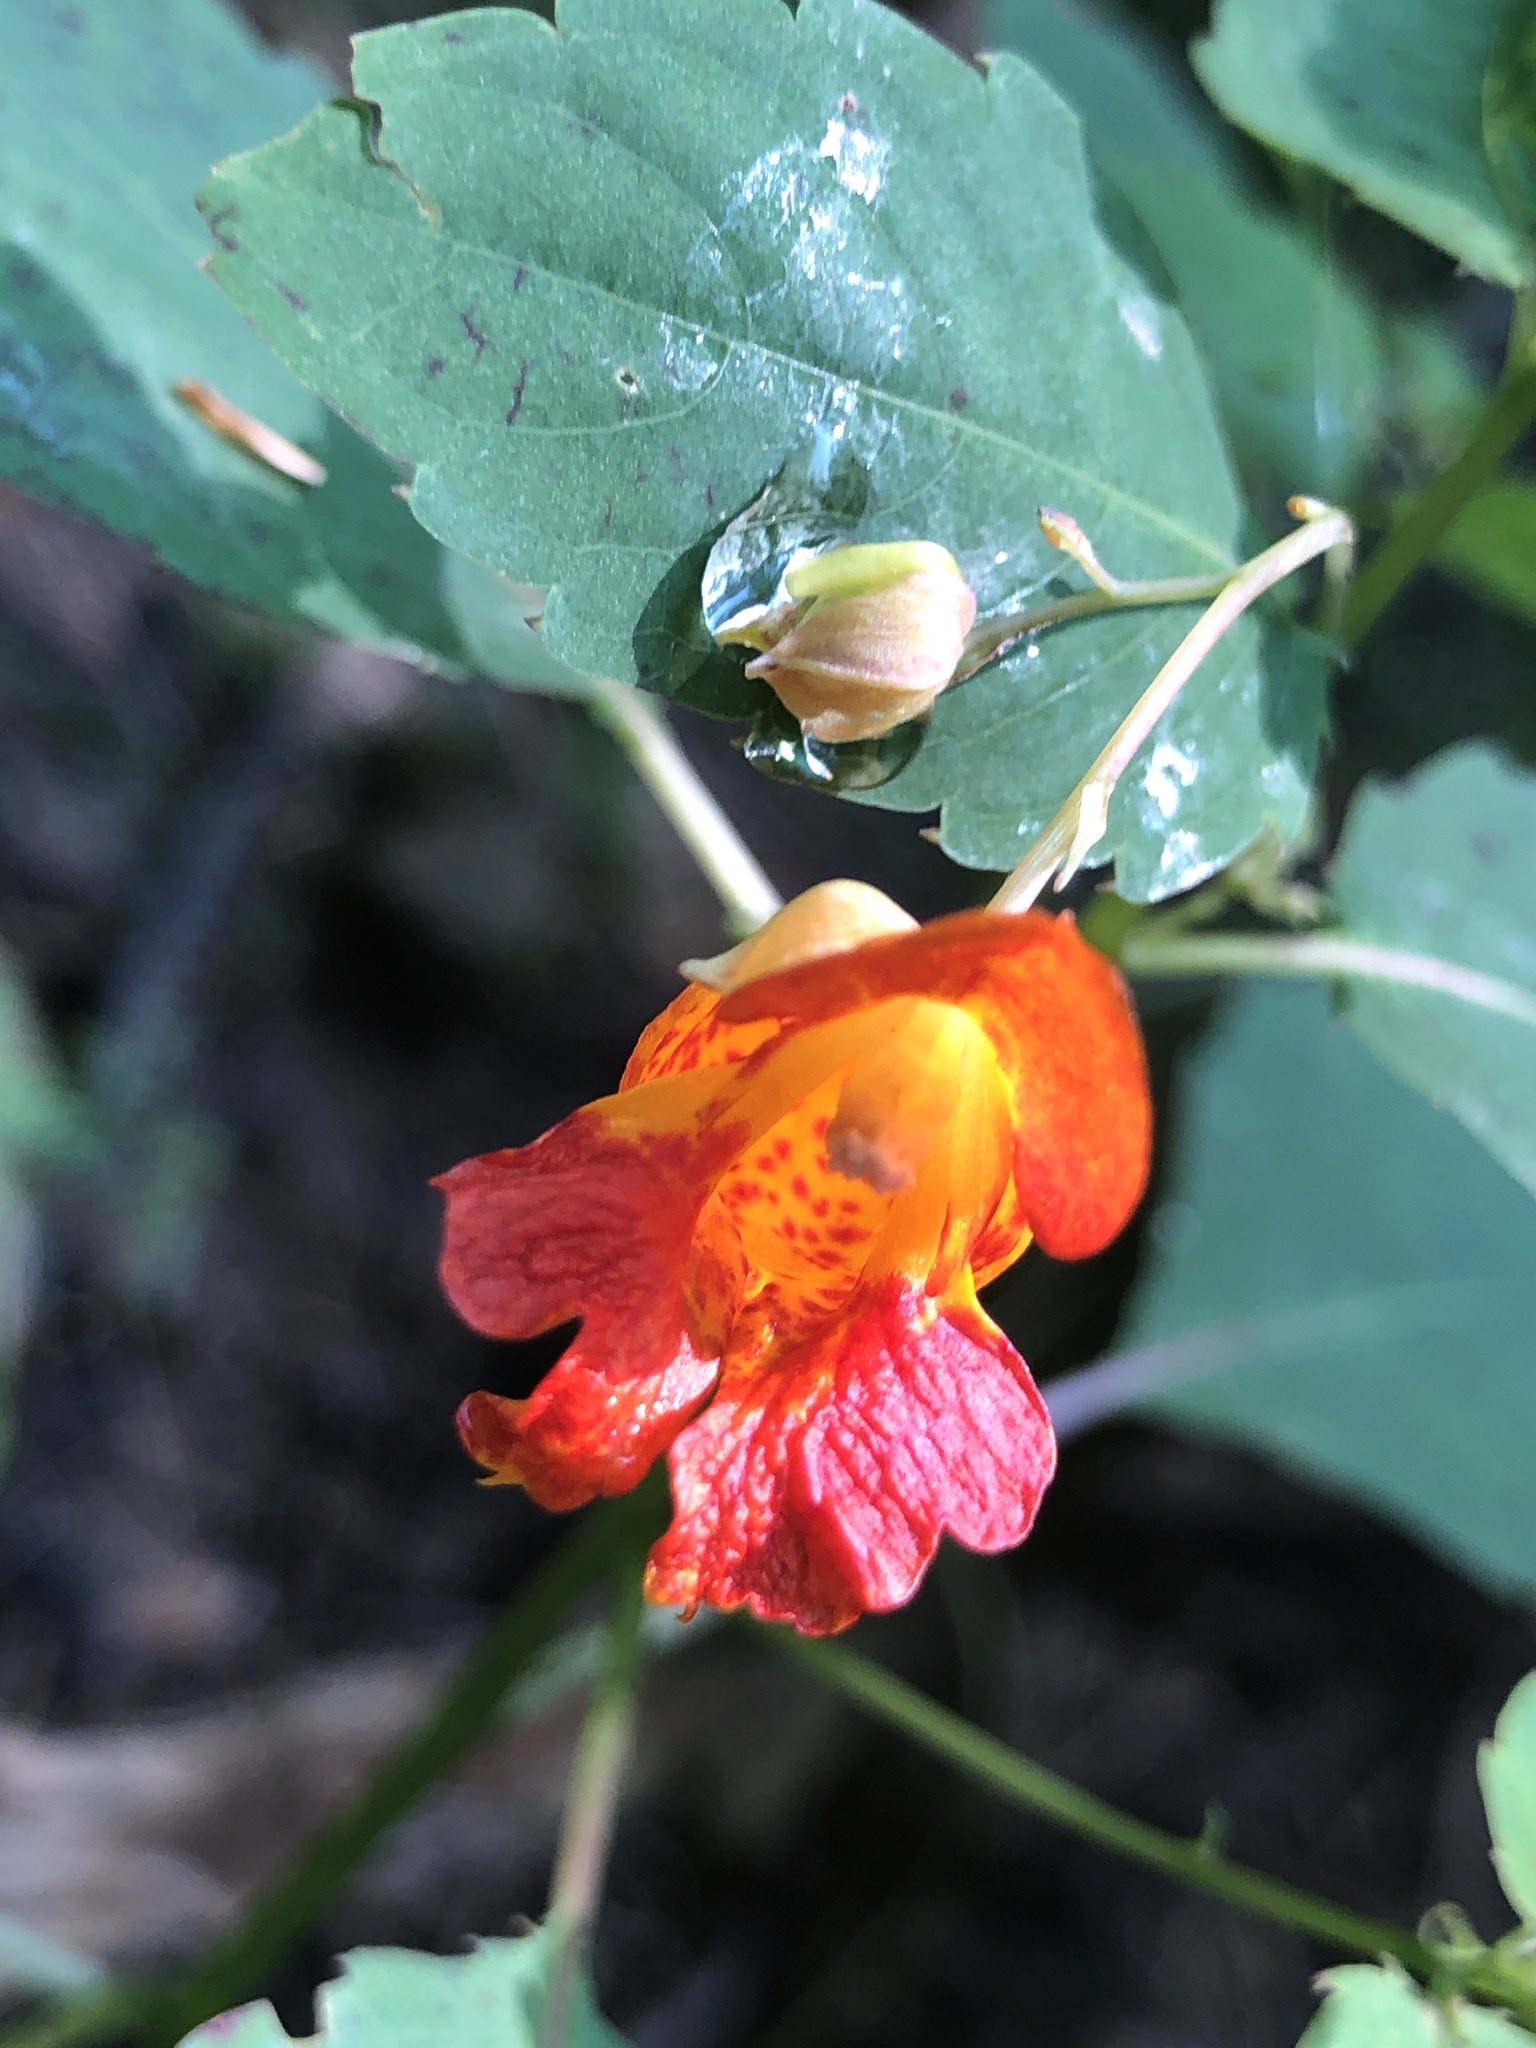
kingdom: Plantae
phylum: Tracheophyta
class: Magnoliopsida
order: Ericales
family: Balsaminaceae
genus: Impatiens
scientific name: Impatiens capensis
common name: Orange balsam
